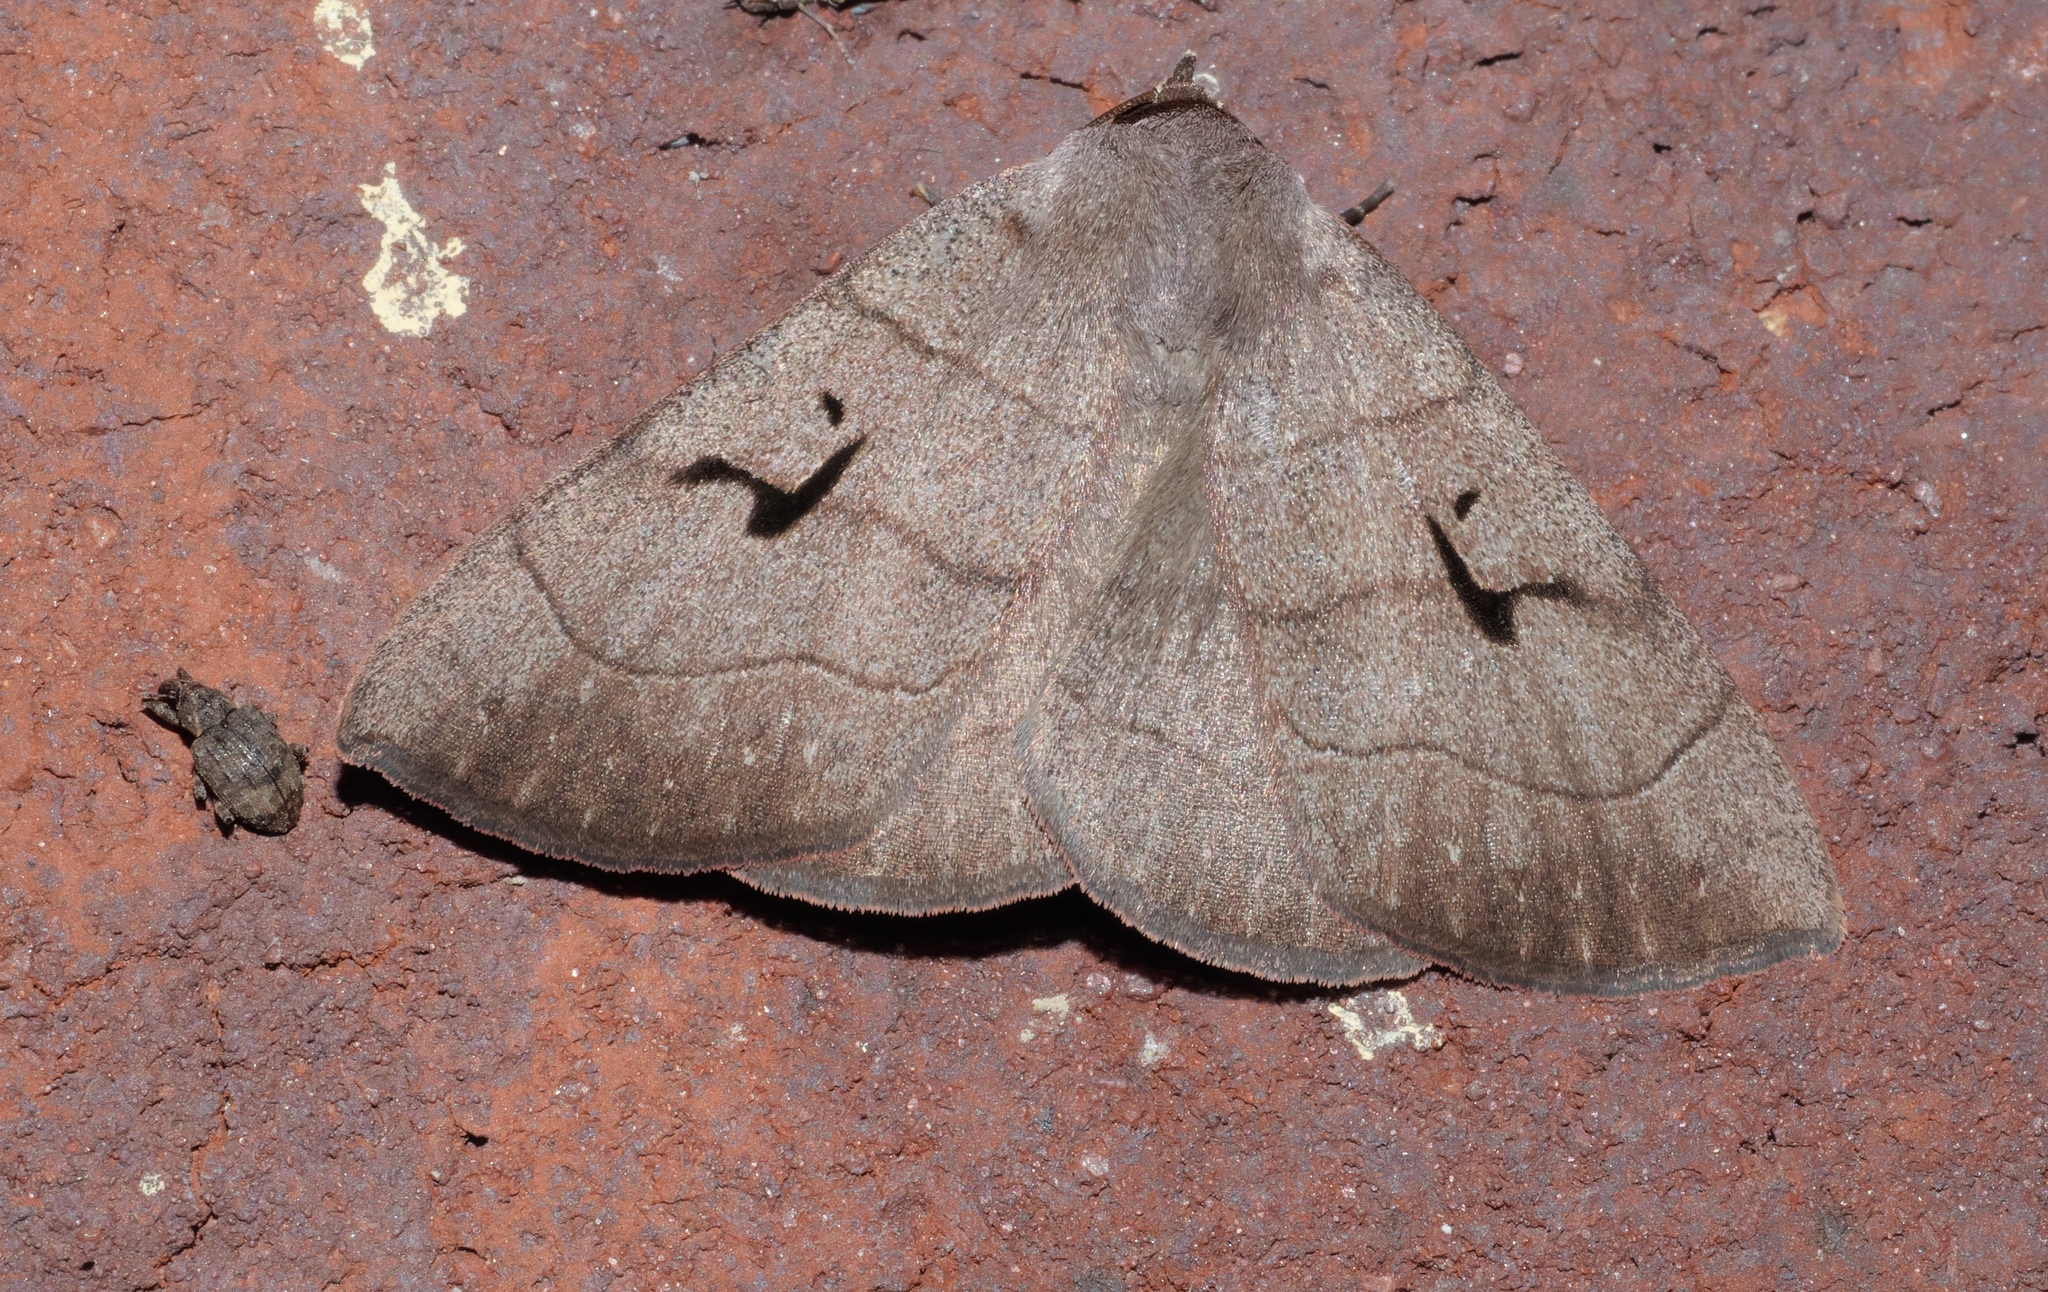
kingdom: Animalia
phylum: Arthropoda
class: Insecta
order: Lepidoptera
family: Erebidae
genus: Panopoda
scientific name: Panopoda carneicosta
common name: Brown panopoda moth
